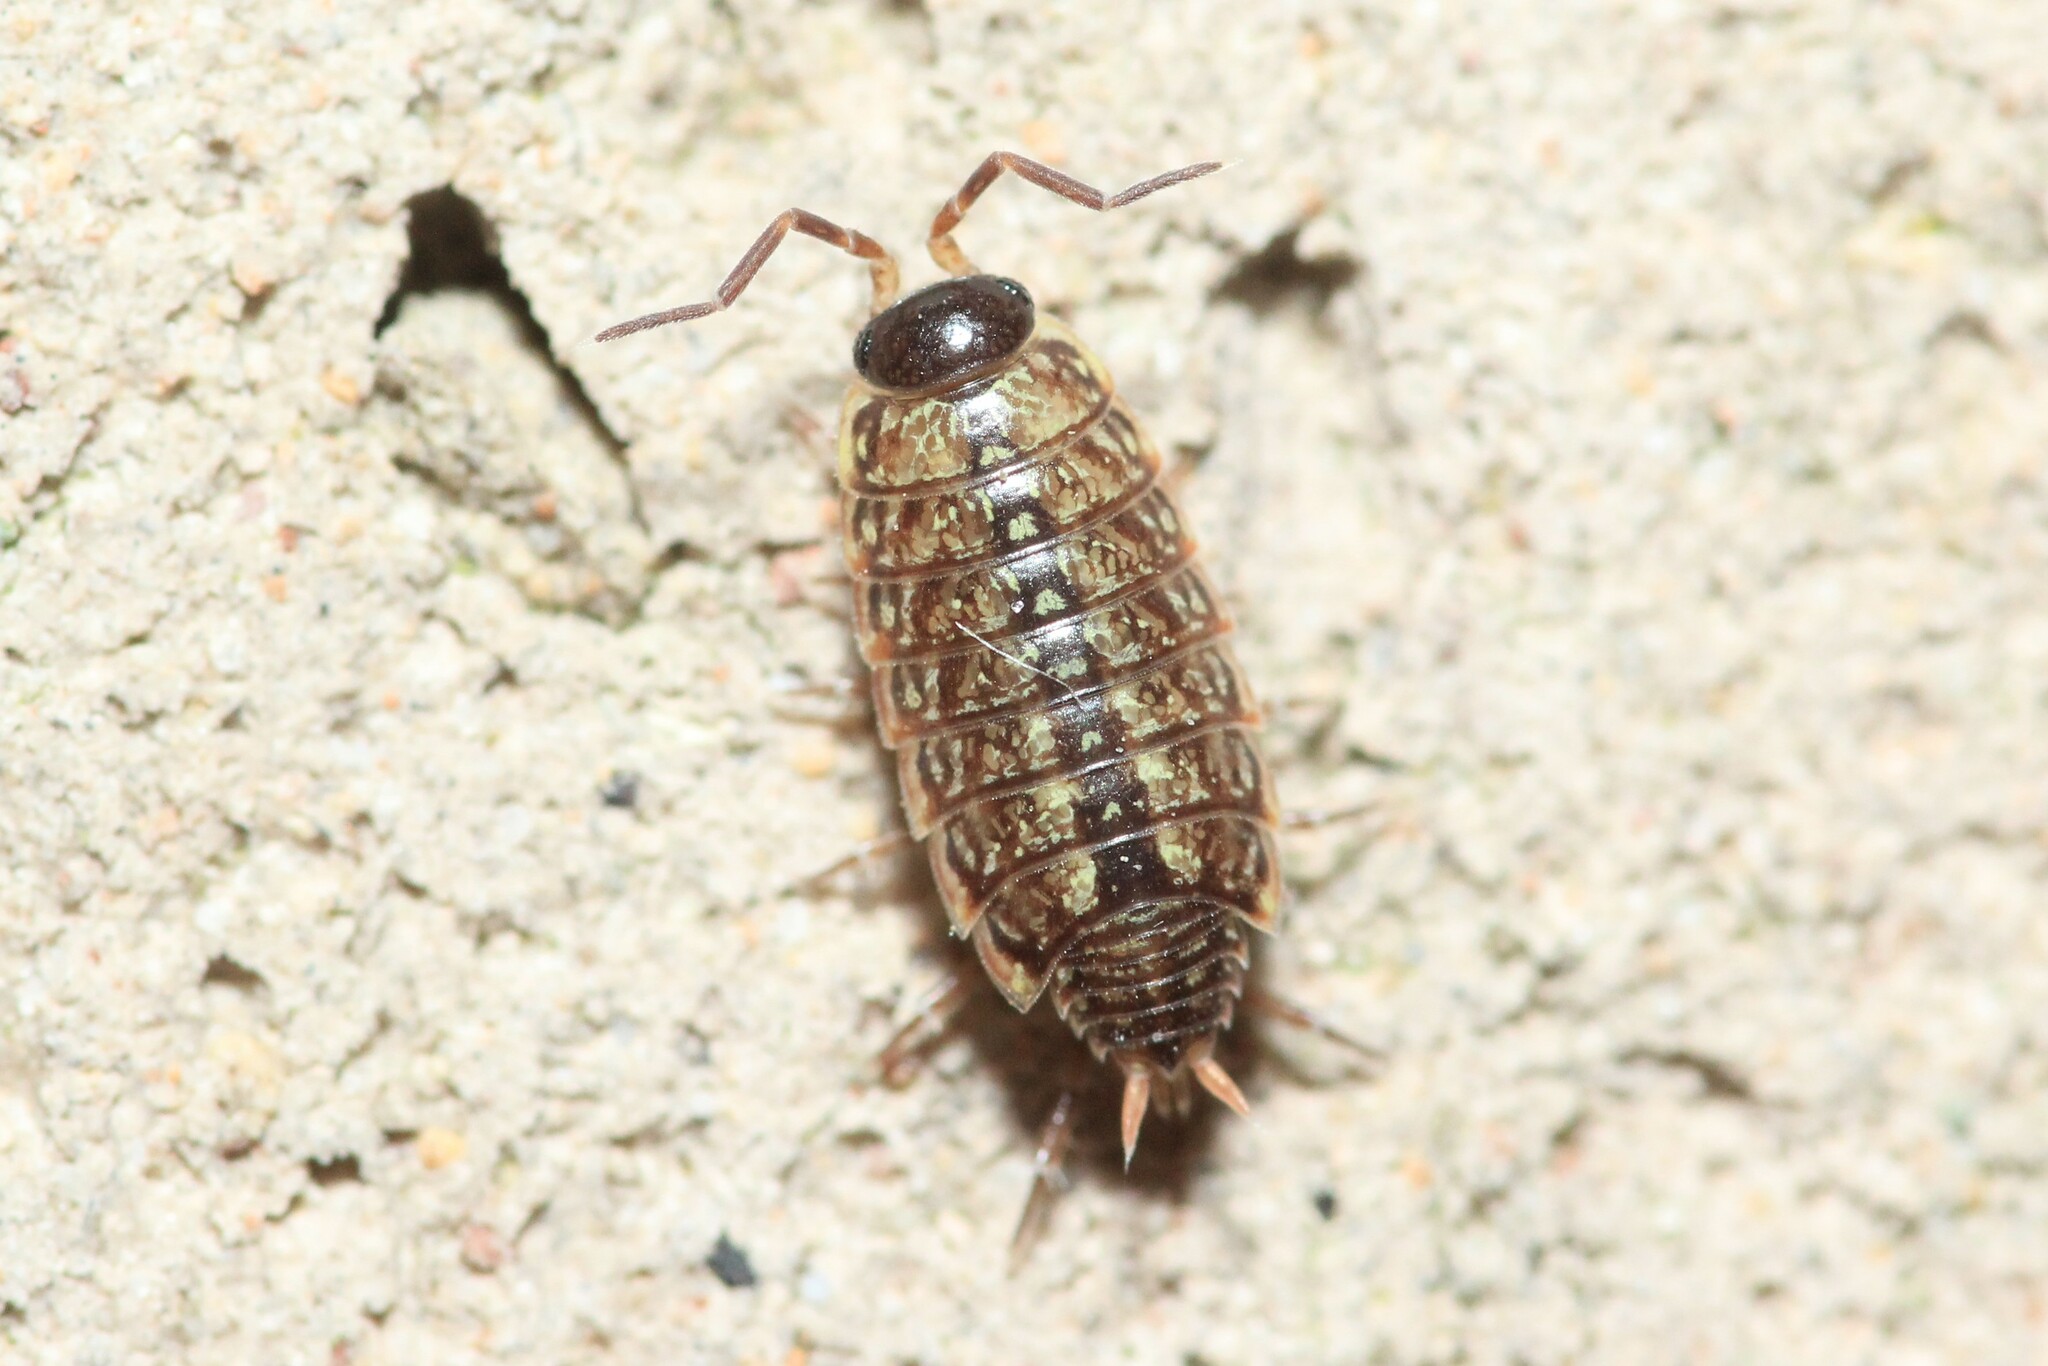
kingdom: Animalia
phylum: Arthropoda
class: Malacostraca
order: Isopoda
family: Philosciidae
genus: Philoscia
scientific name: Philoscia muscorum
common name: Common striped woodlouse
